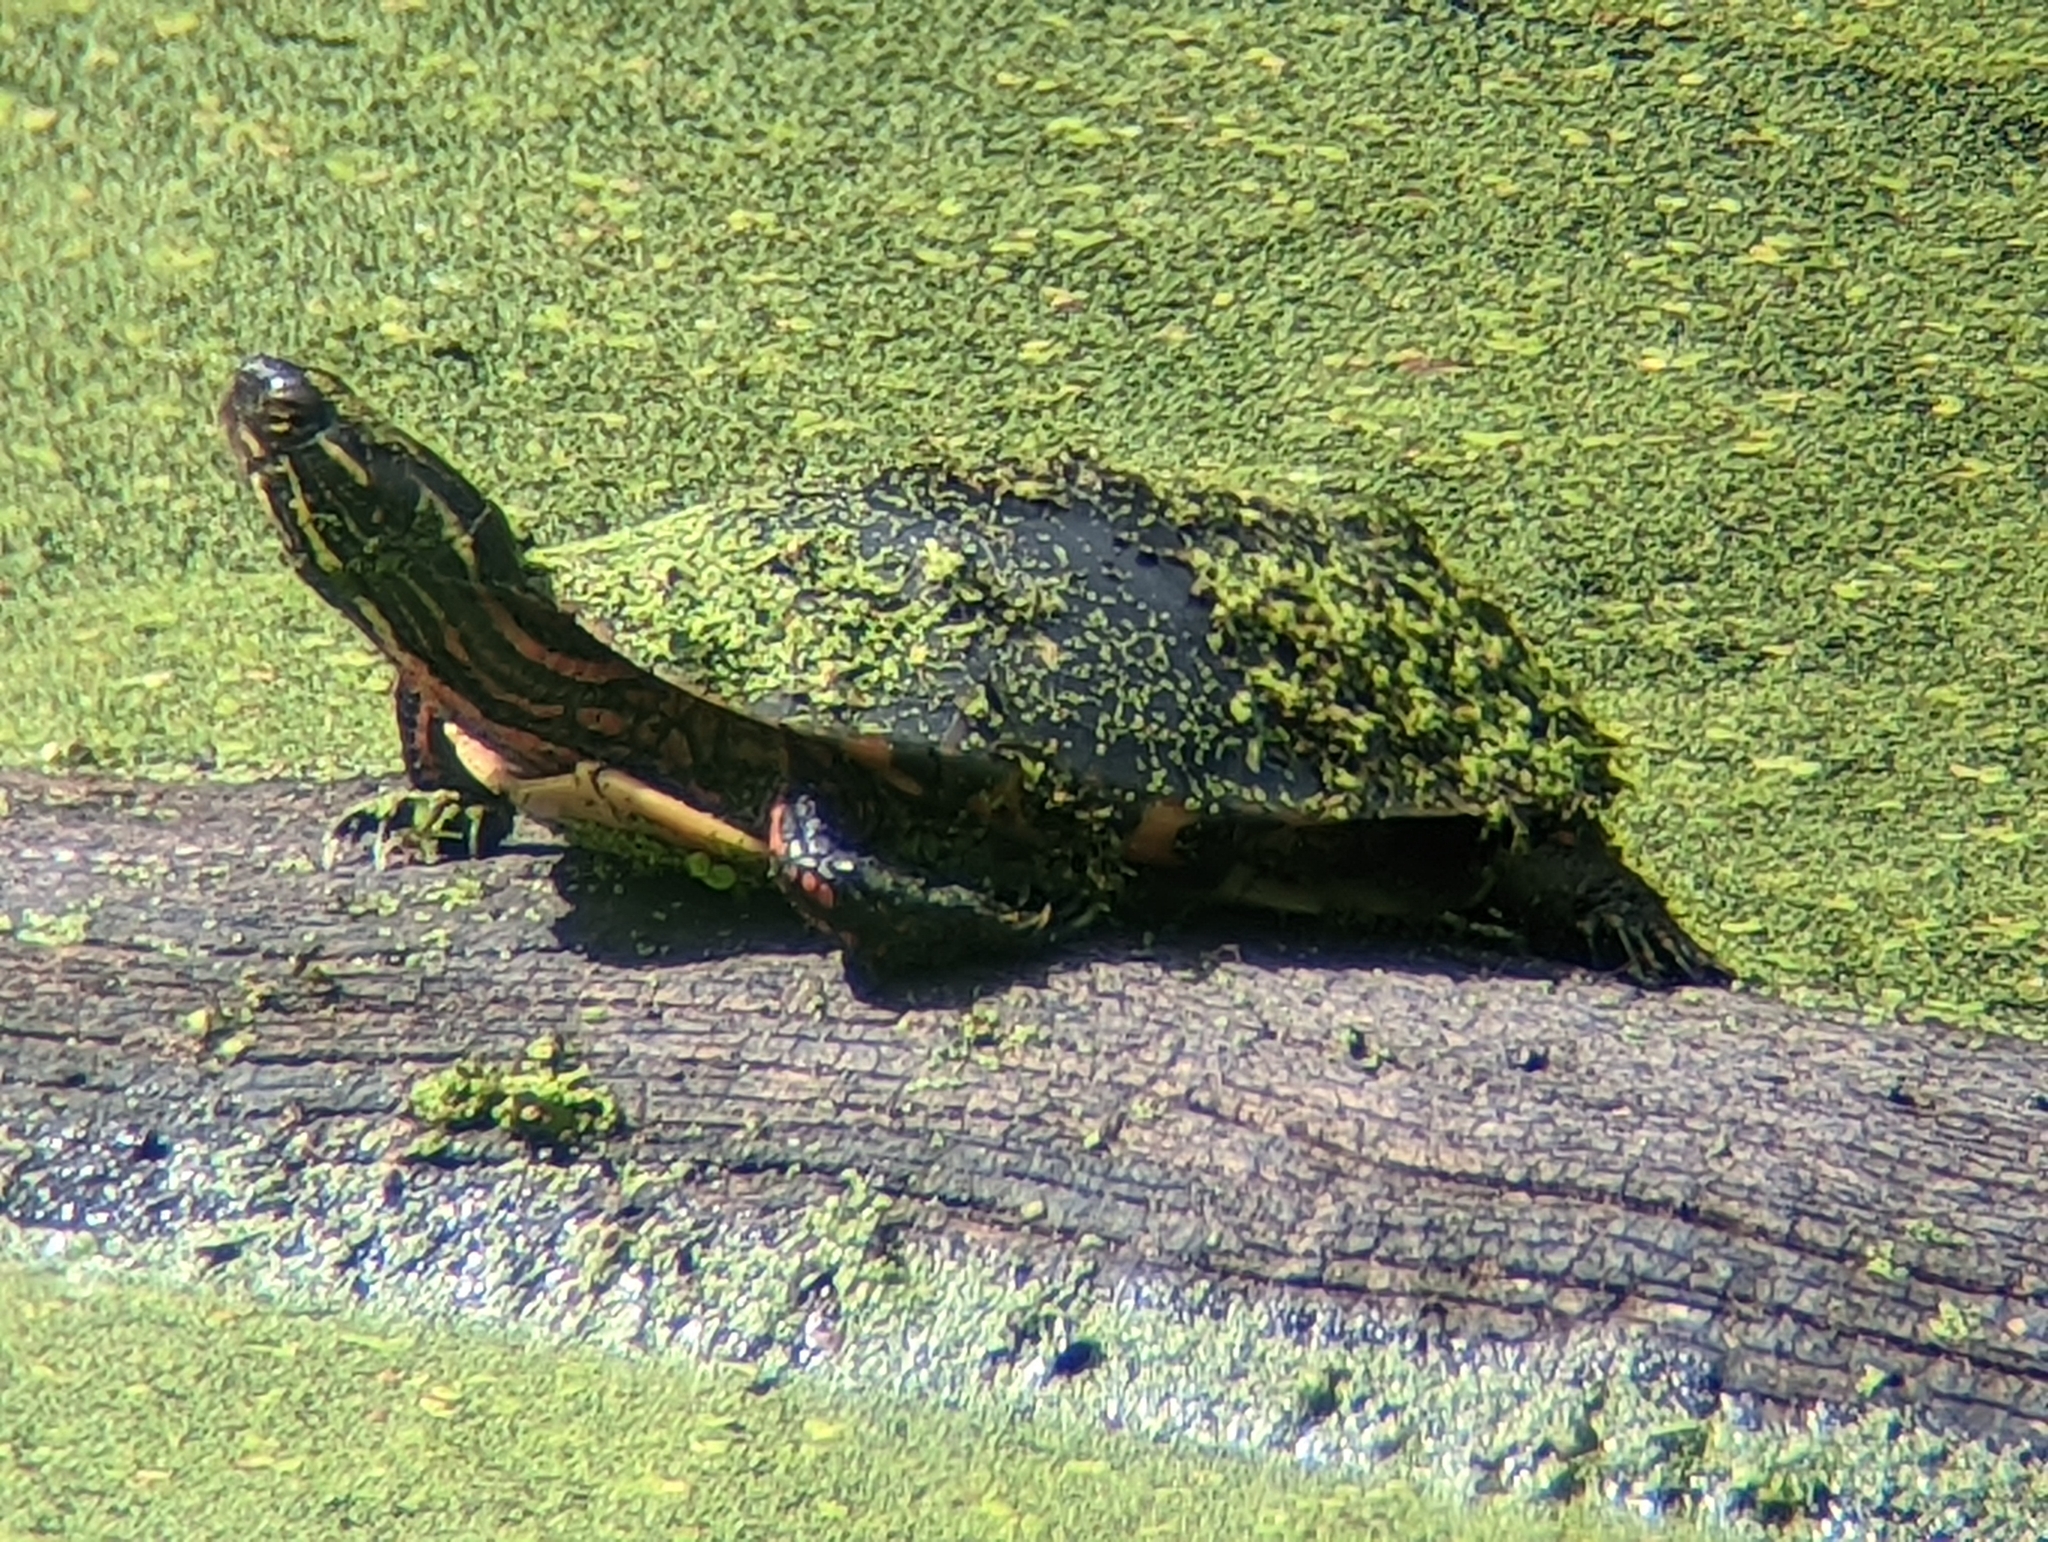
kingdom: Animalia
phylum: Chordata
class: Testudines
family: Emydidae
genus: Chrysemys
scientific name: Chrysemys picta
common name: Painted turtle
